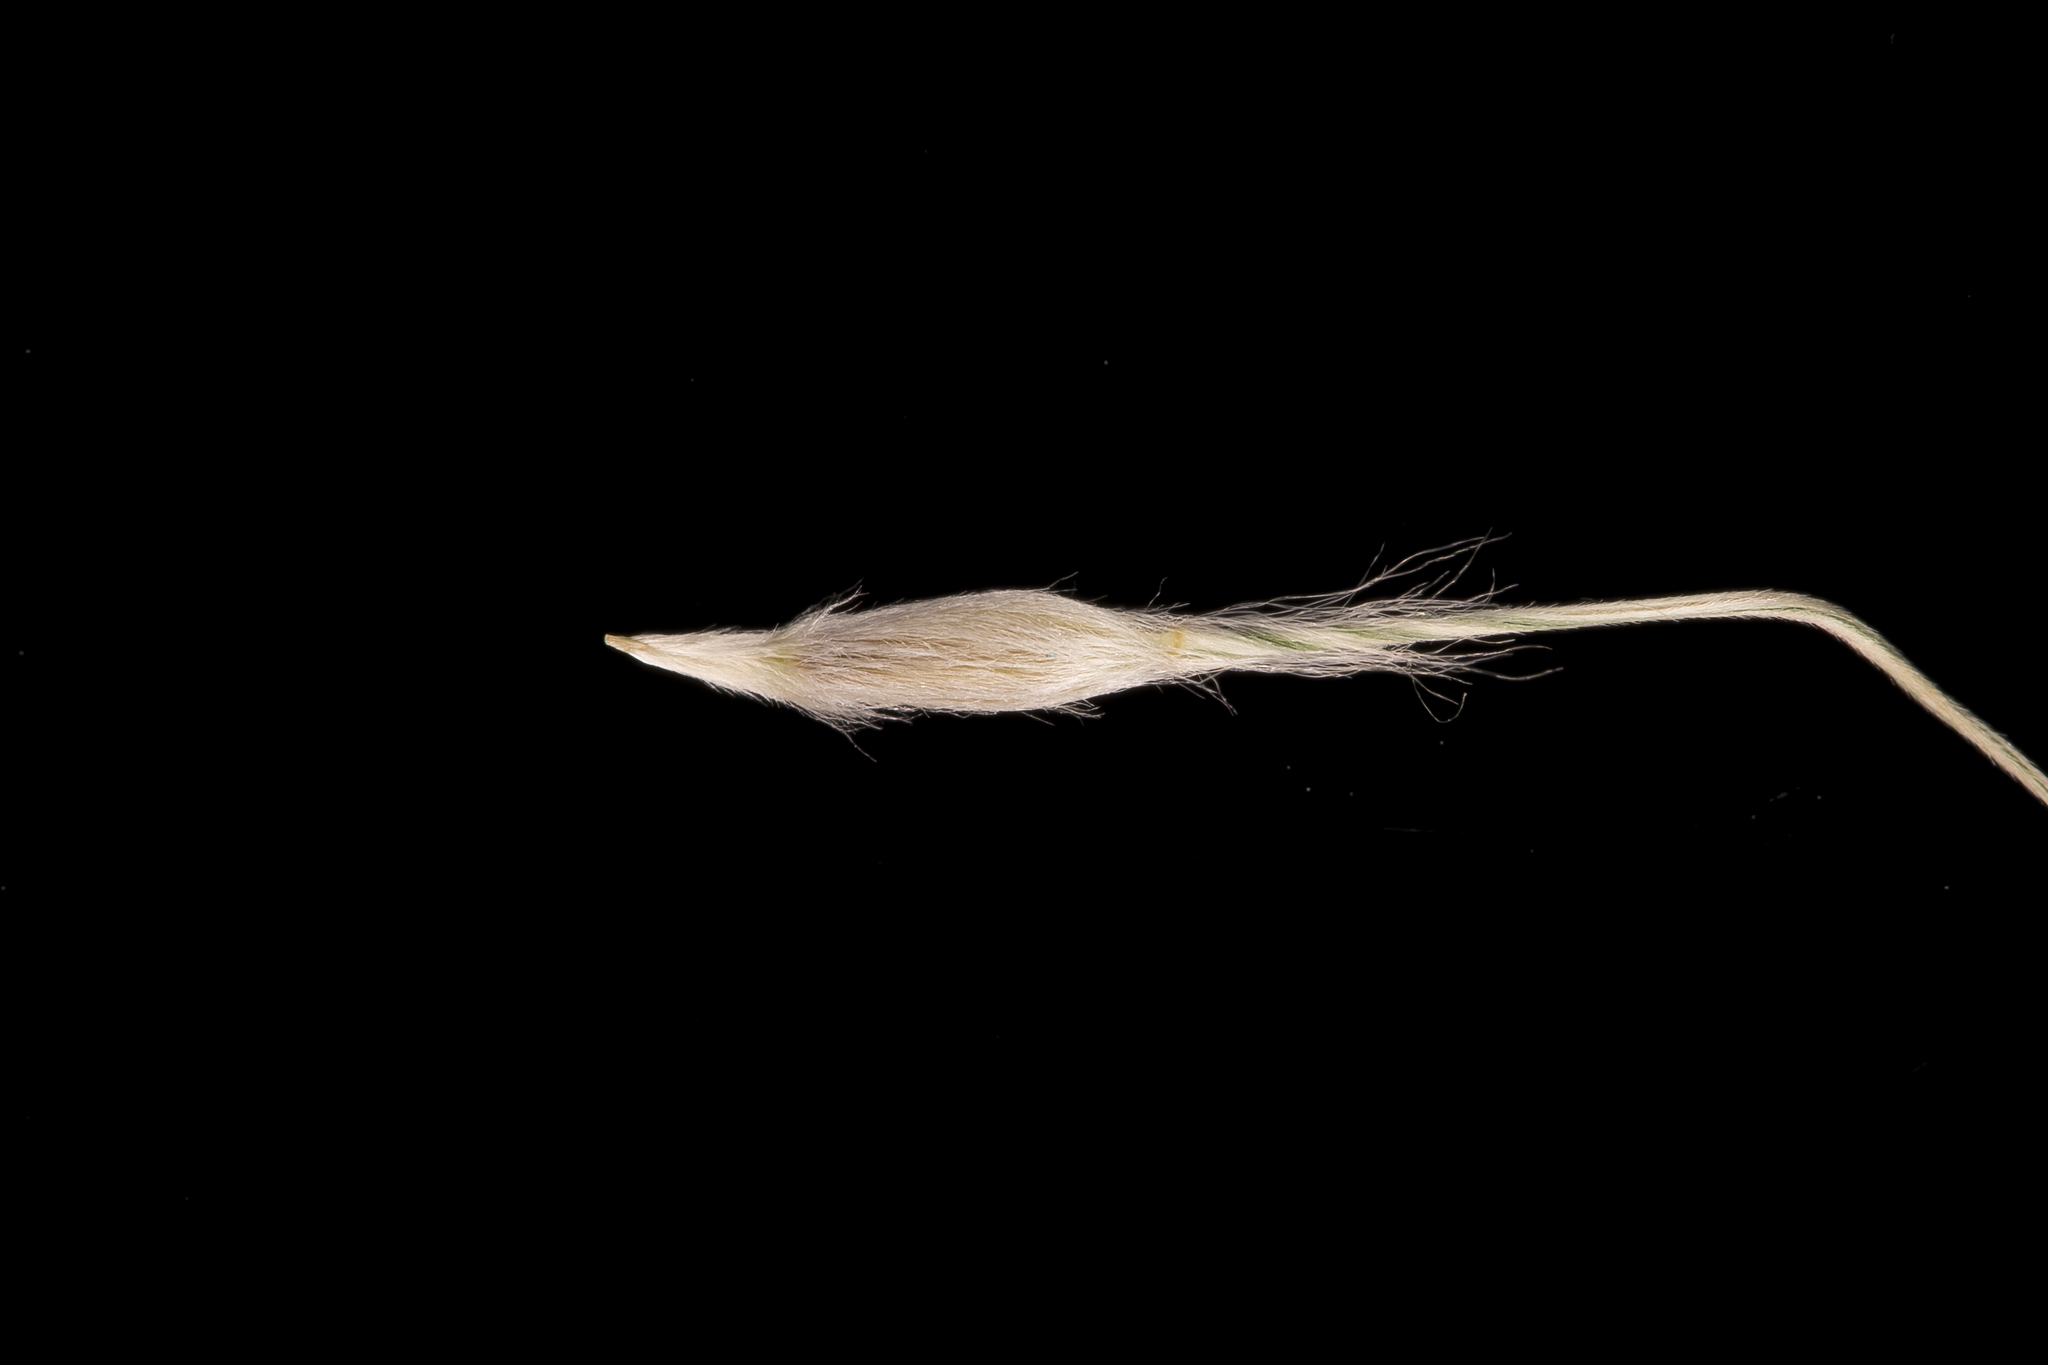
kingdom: Plantae
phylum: Tracheophyta
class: Liliopsida
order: Poales
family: Poaceae
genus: Austrostipa
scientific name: Austrostipa blackii
